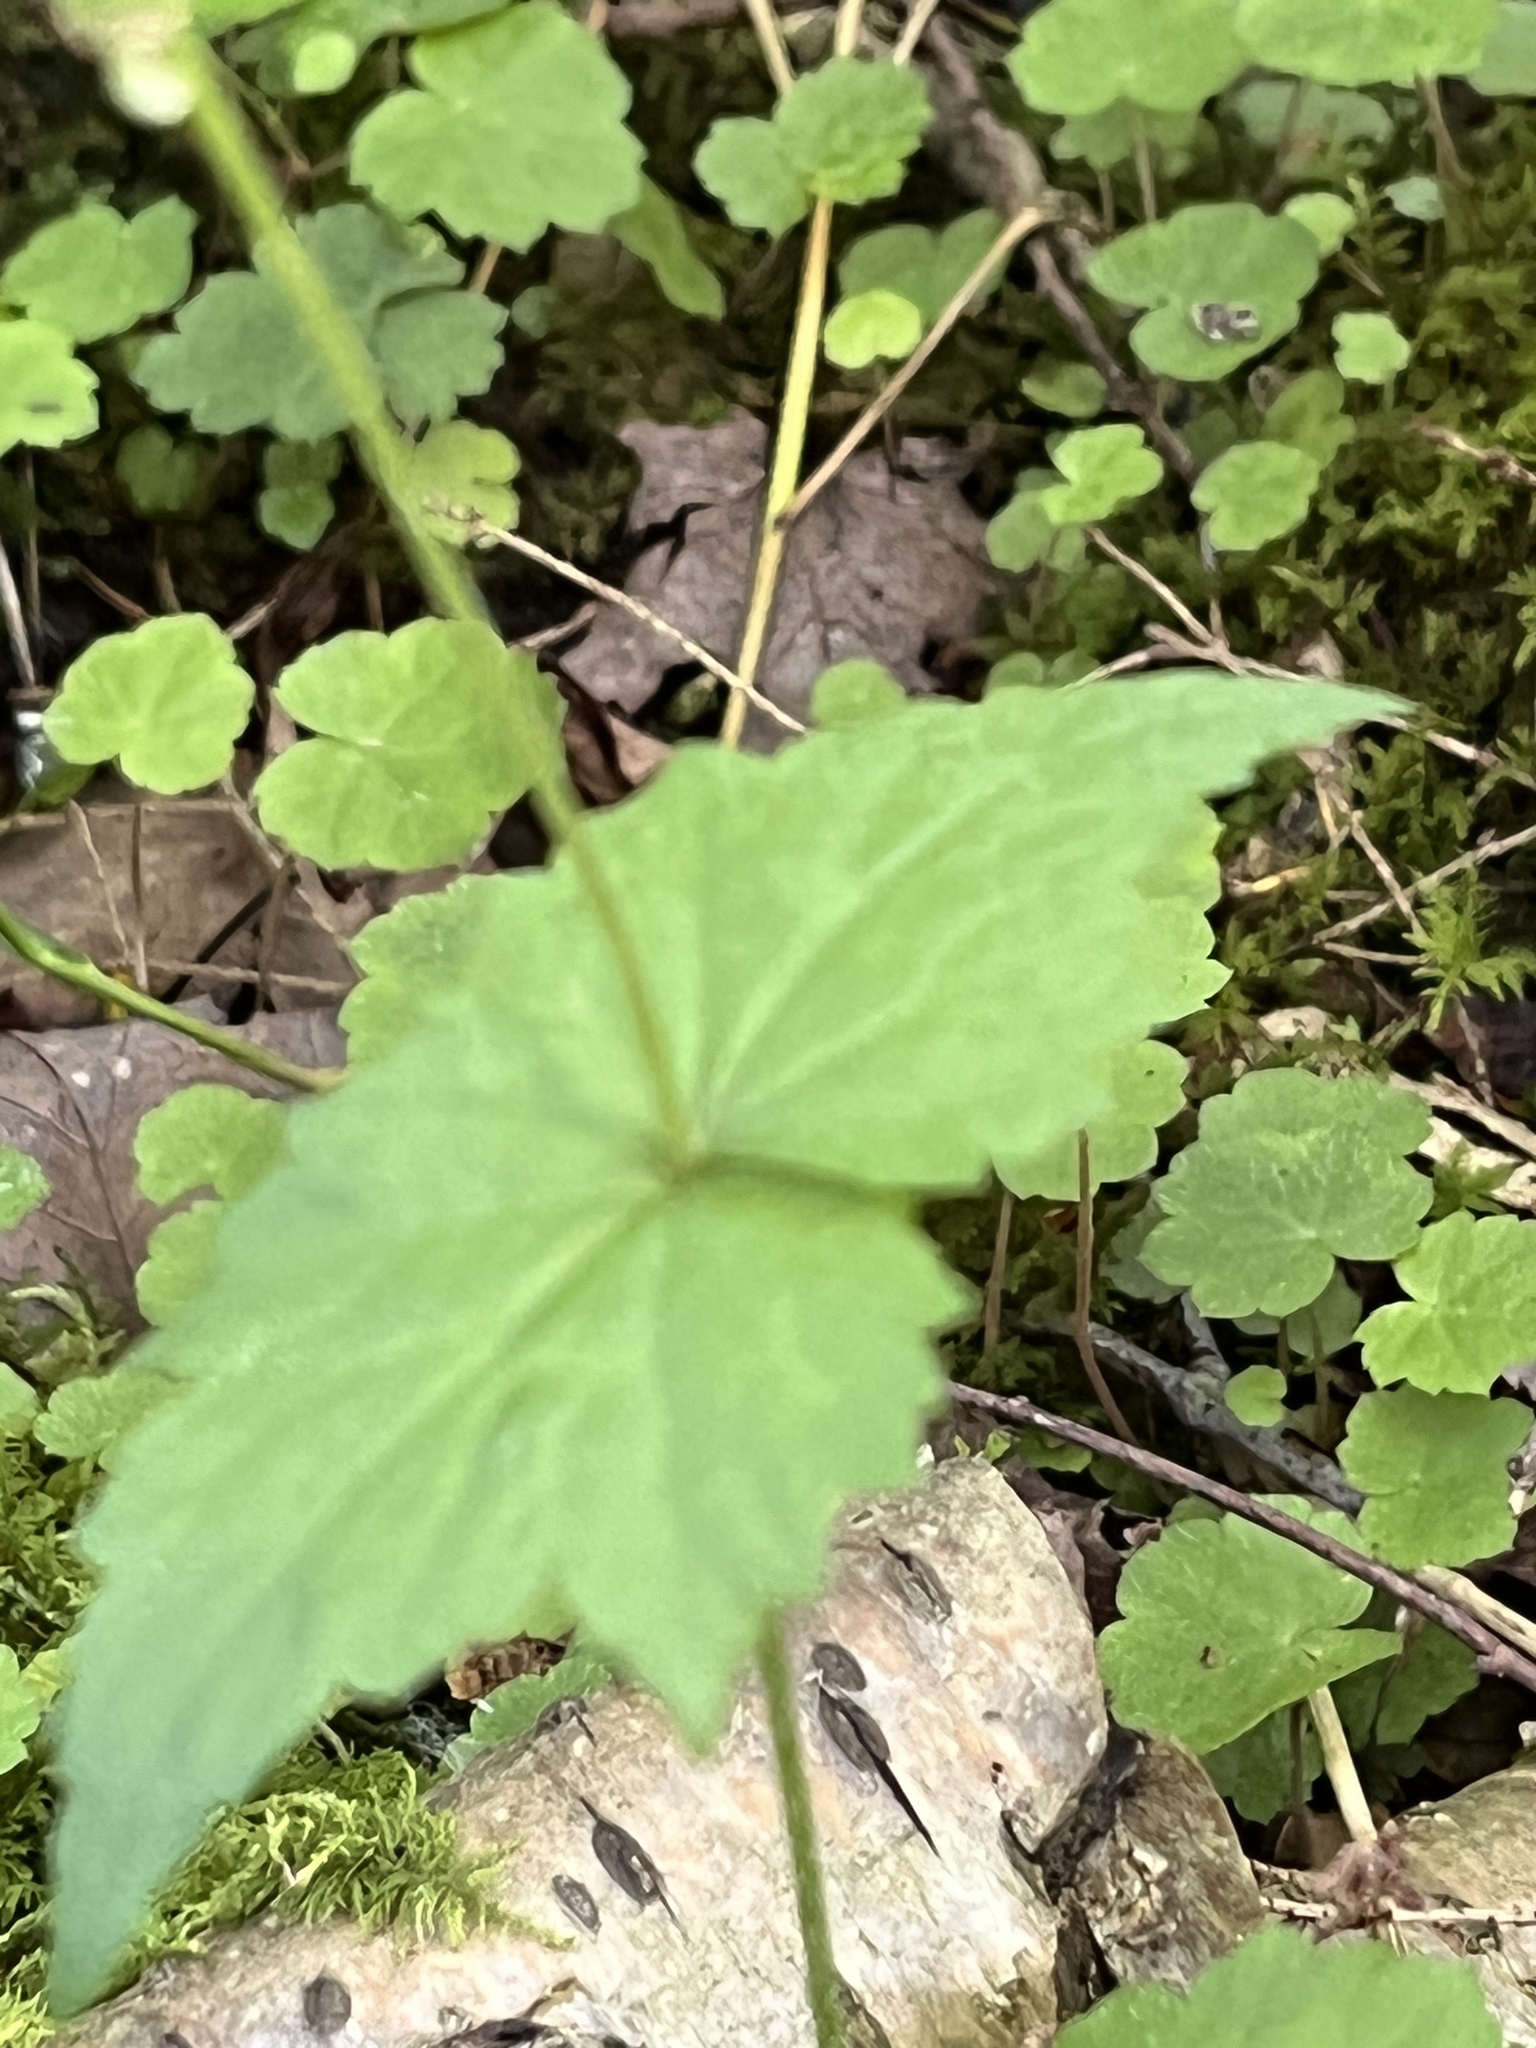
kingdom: Plantae
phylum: Tracheophyta
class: Magnoliopsida
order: Saxifragales
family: Saxifragaceae
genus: Mitella
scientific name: Mitella diphylla
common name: Coolwort
